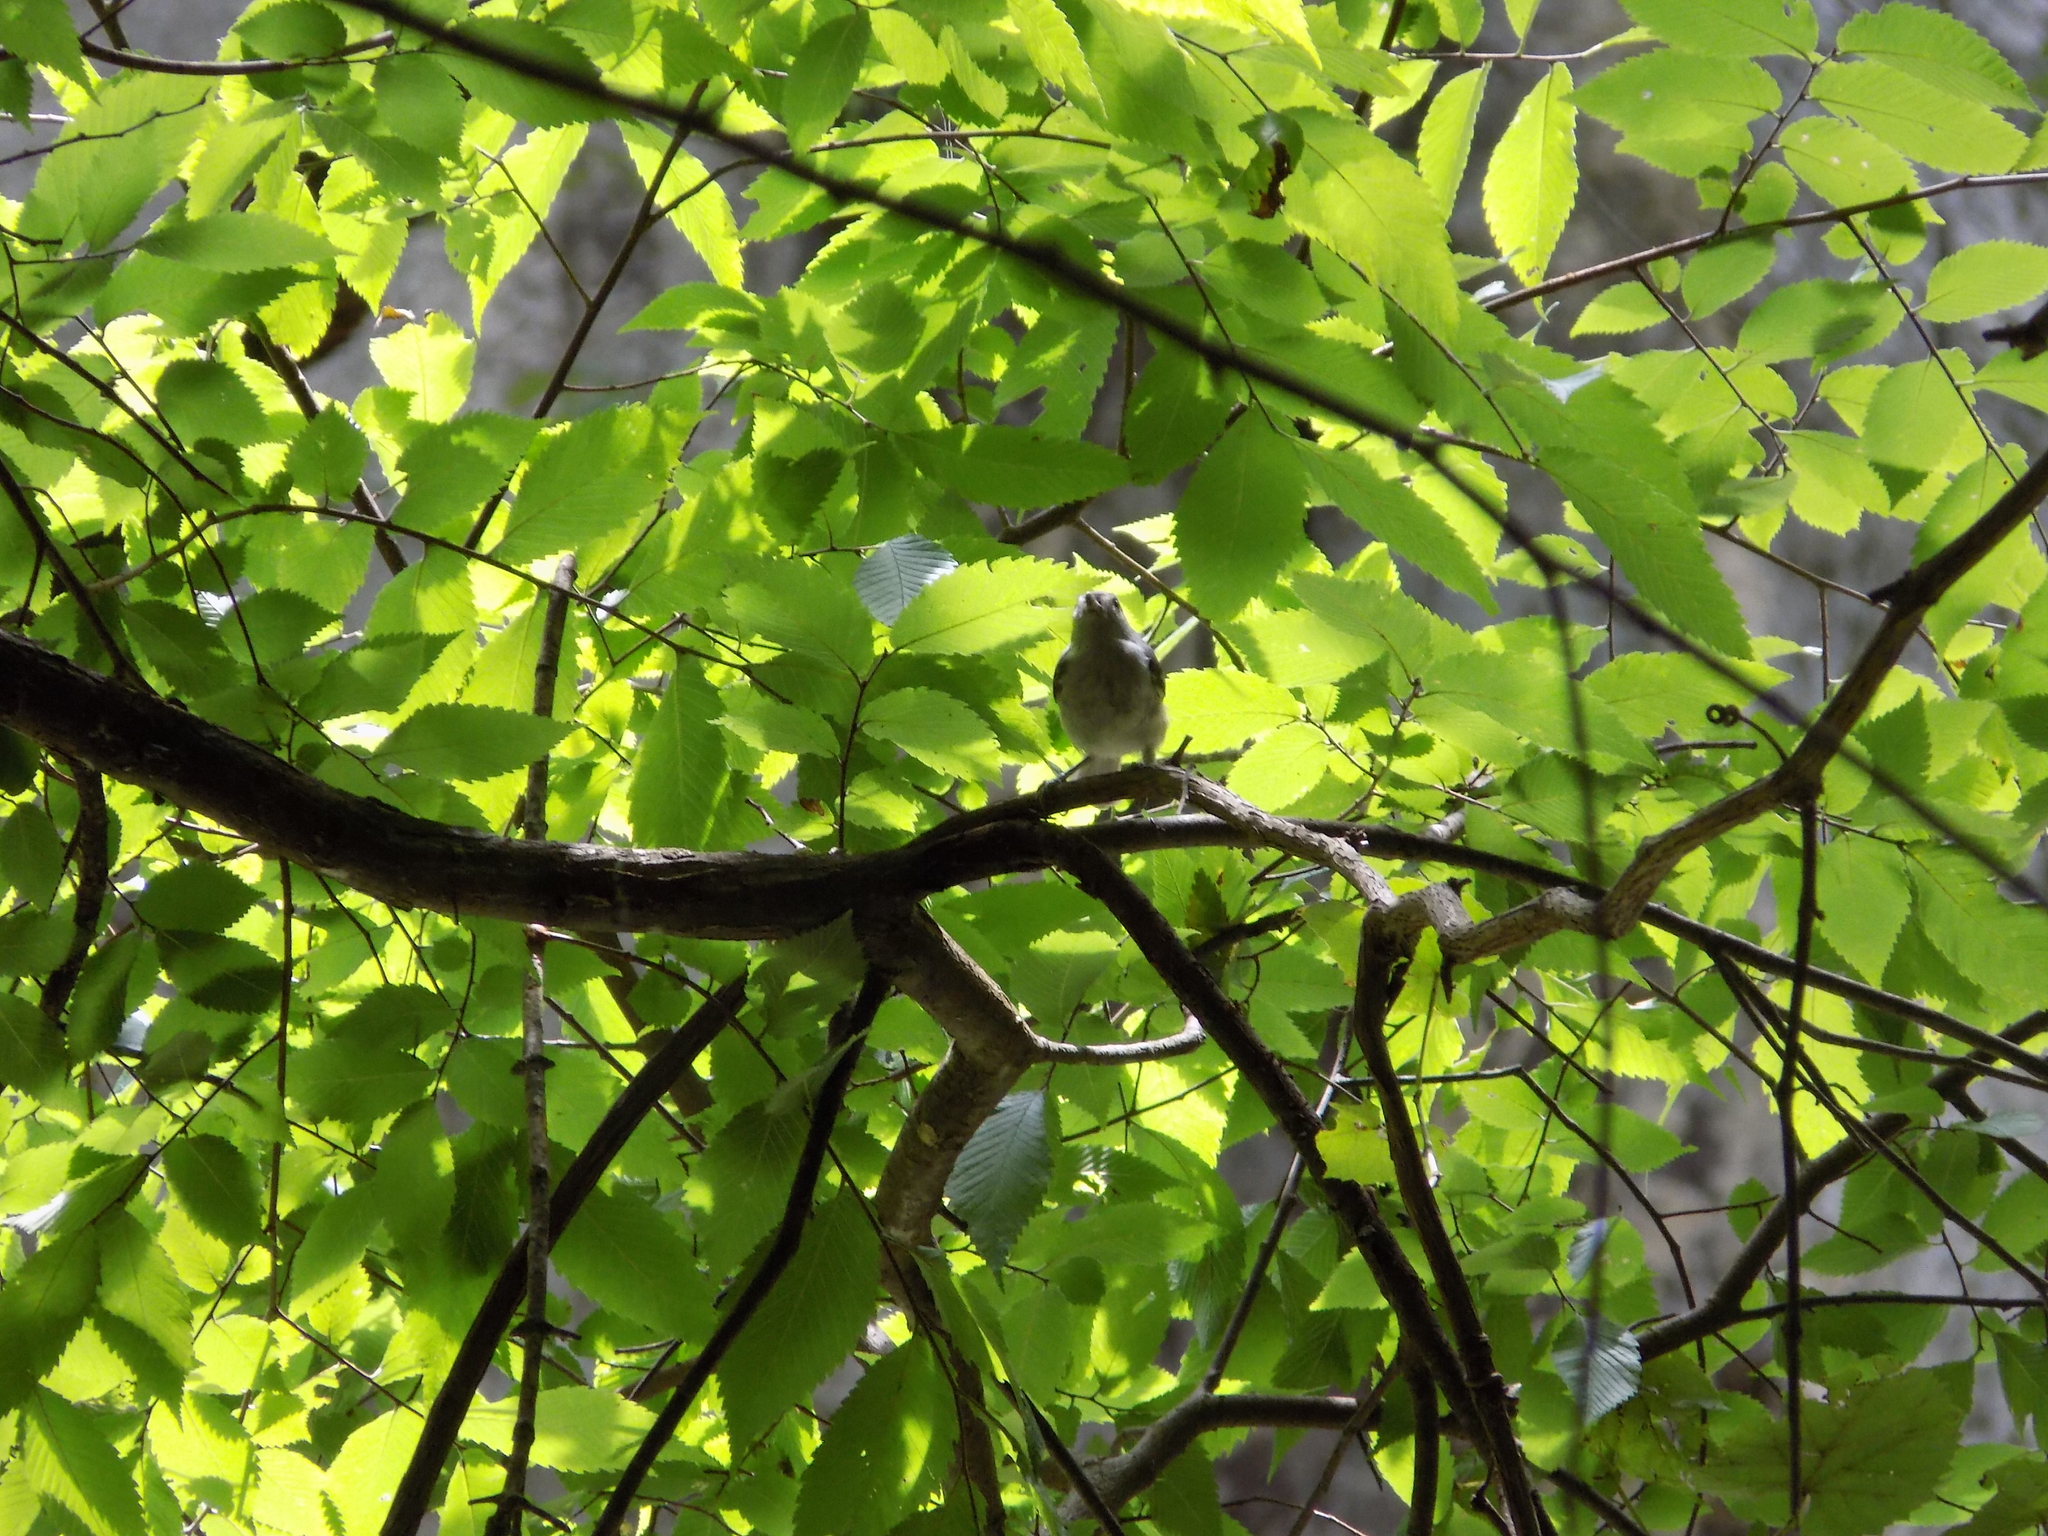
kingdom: Animalia
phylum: Chordata
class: Aves
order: Passeriformes
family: Paridae
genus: Baeolophus
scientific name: Baeolophus bicolor
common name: Tufted titmouse
